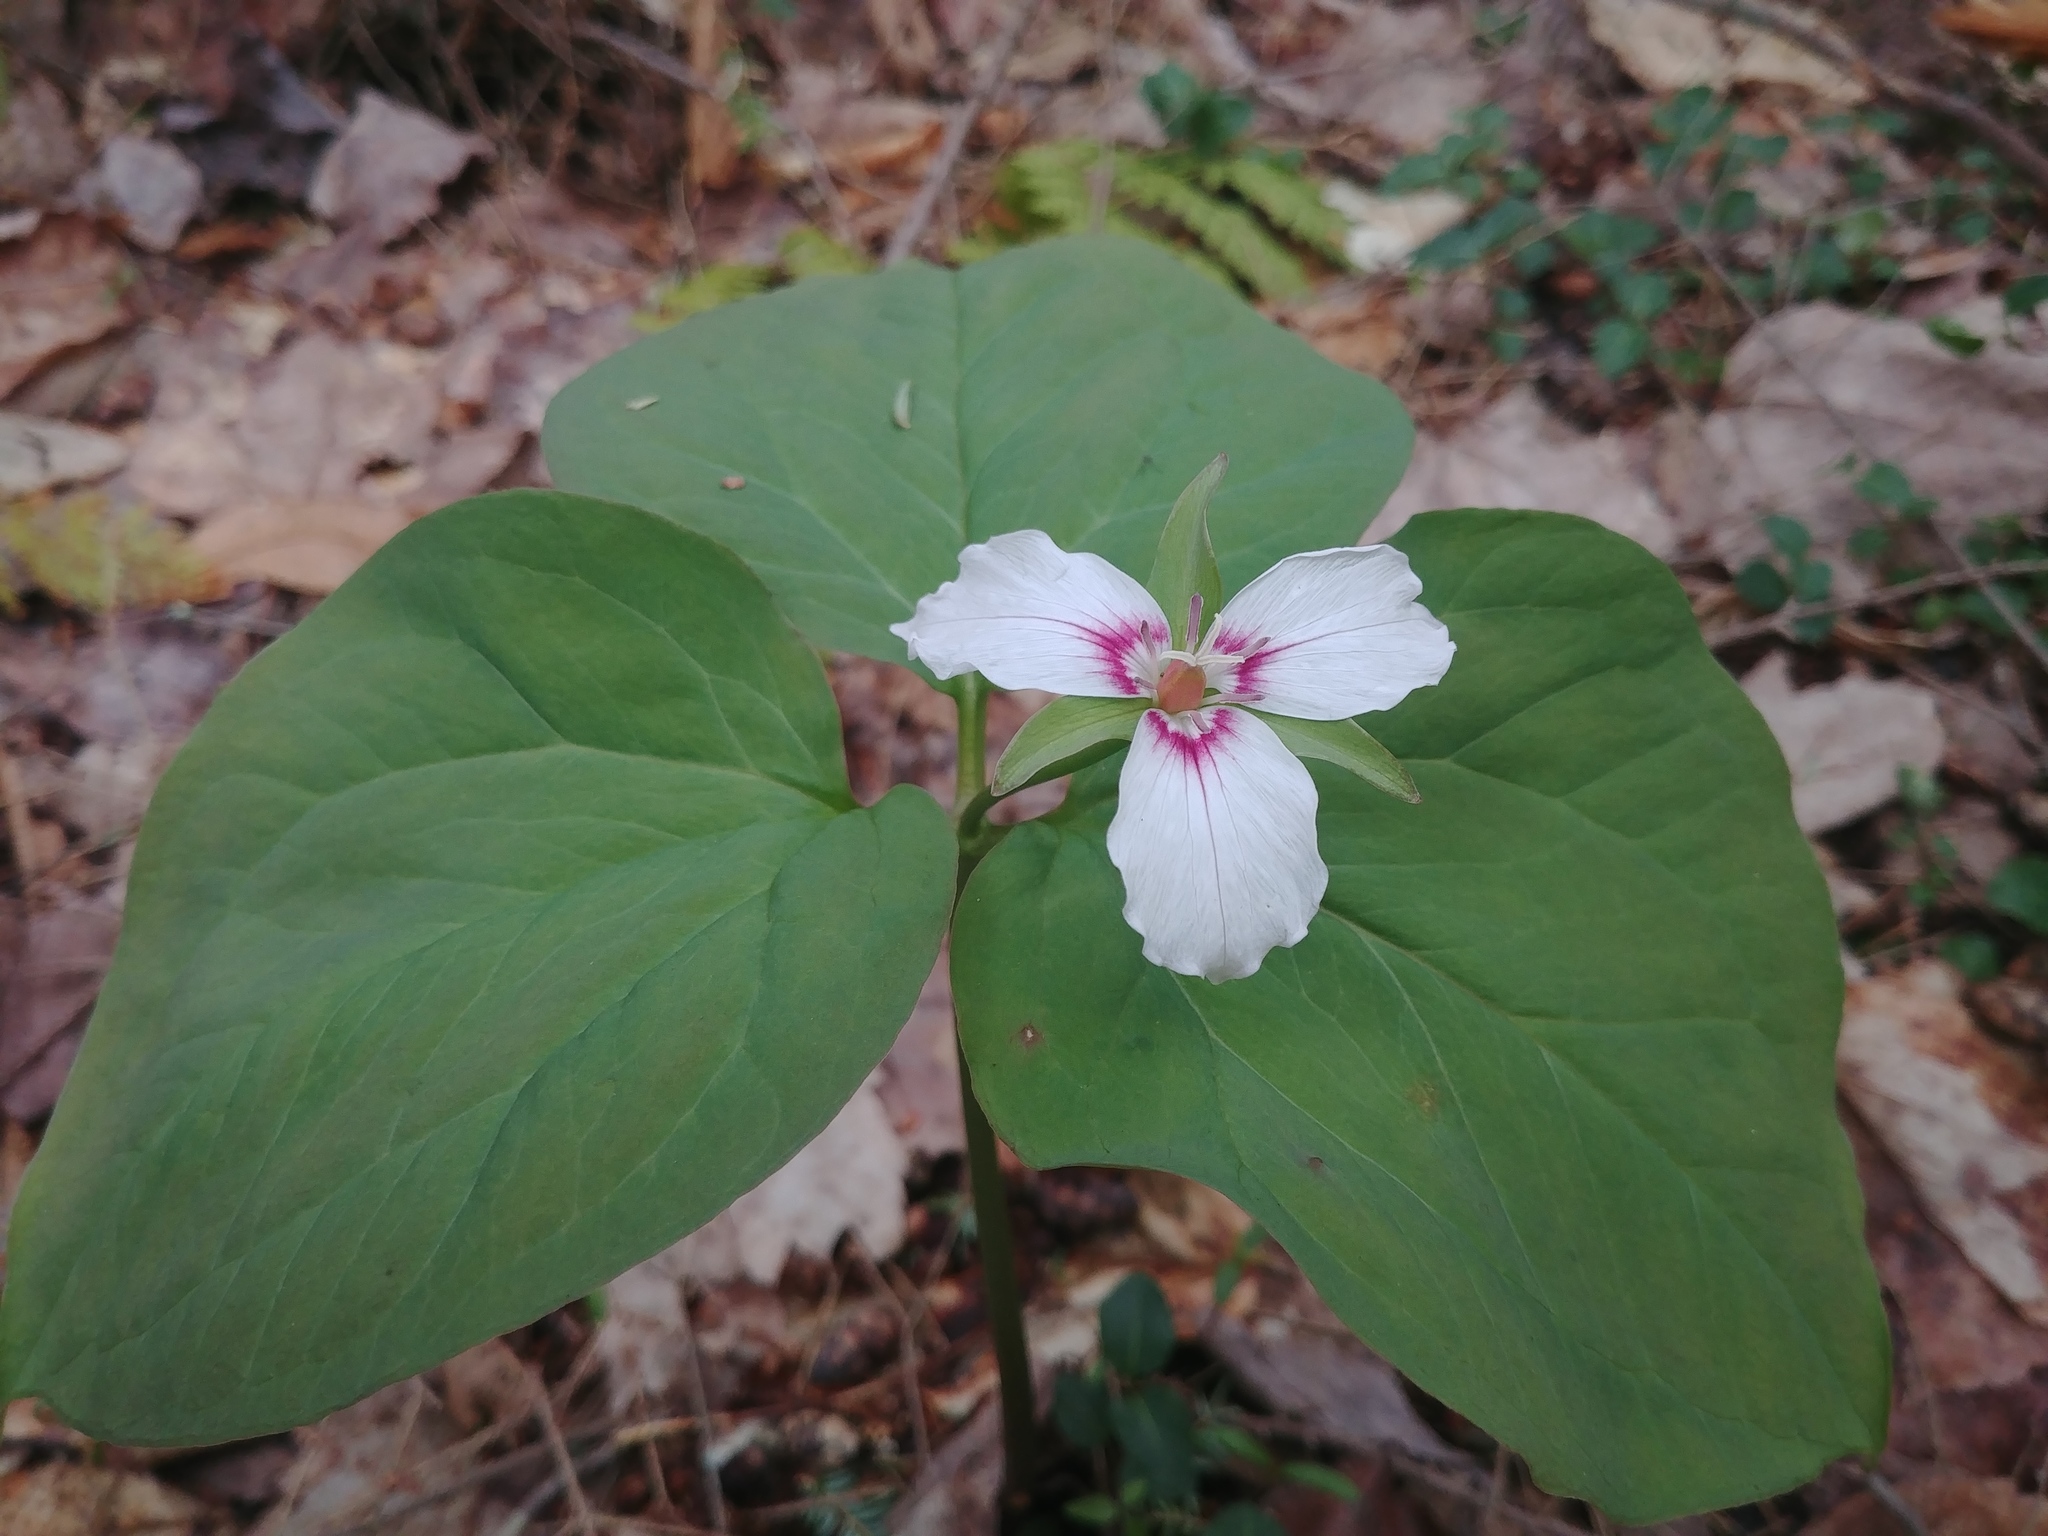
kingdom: Plantae
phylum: Tracheophyta
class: Liliopsida
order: Liliales
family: Melanthiaceae
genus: Trillium
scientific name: Trillium undulatum
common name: Paint trillium
